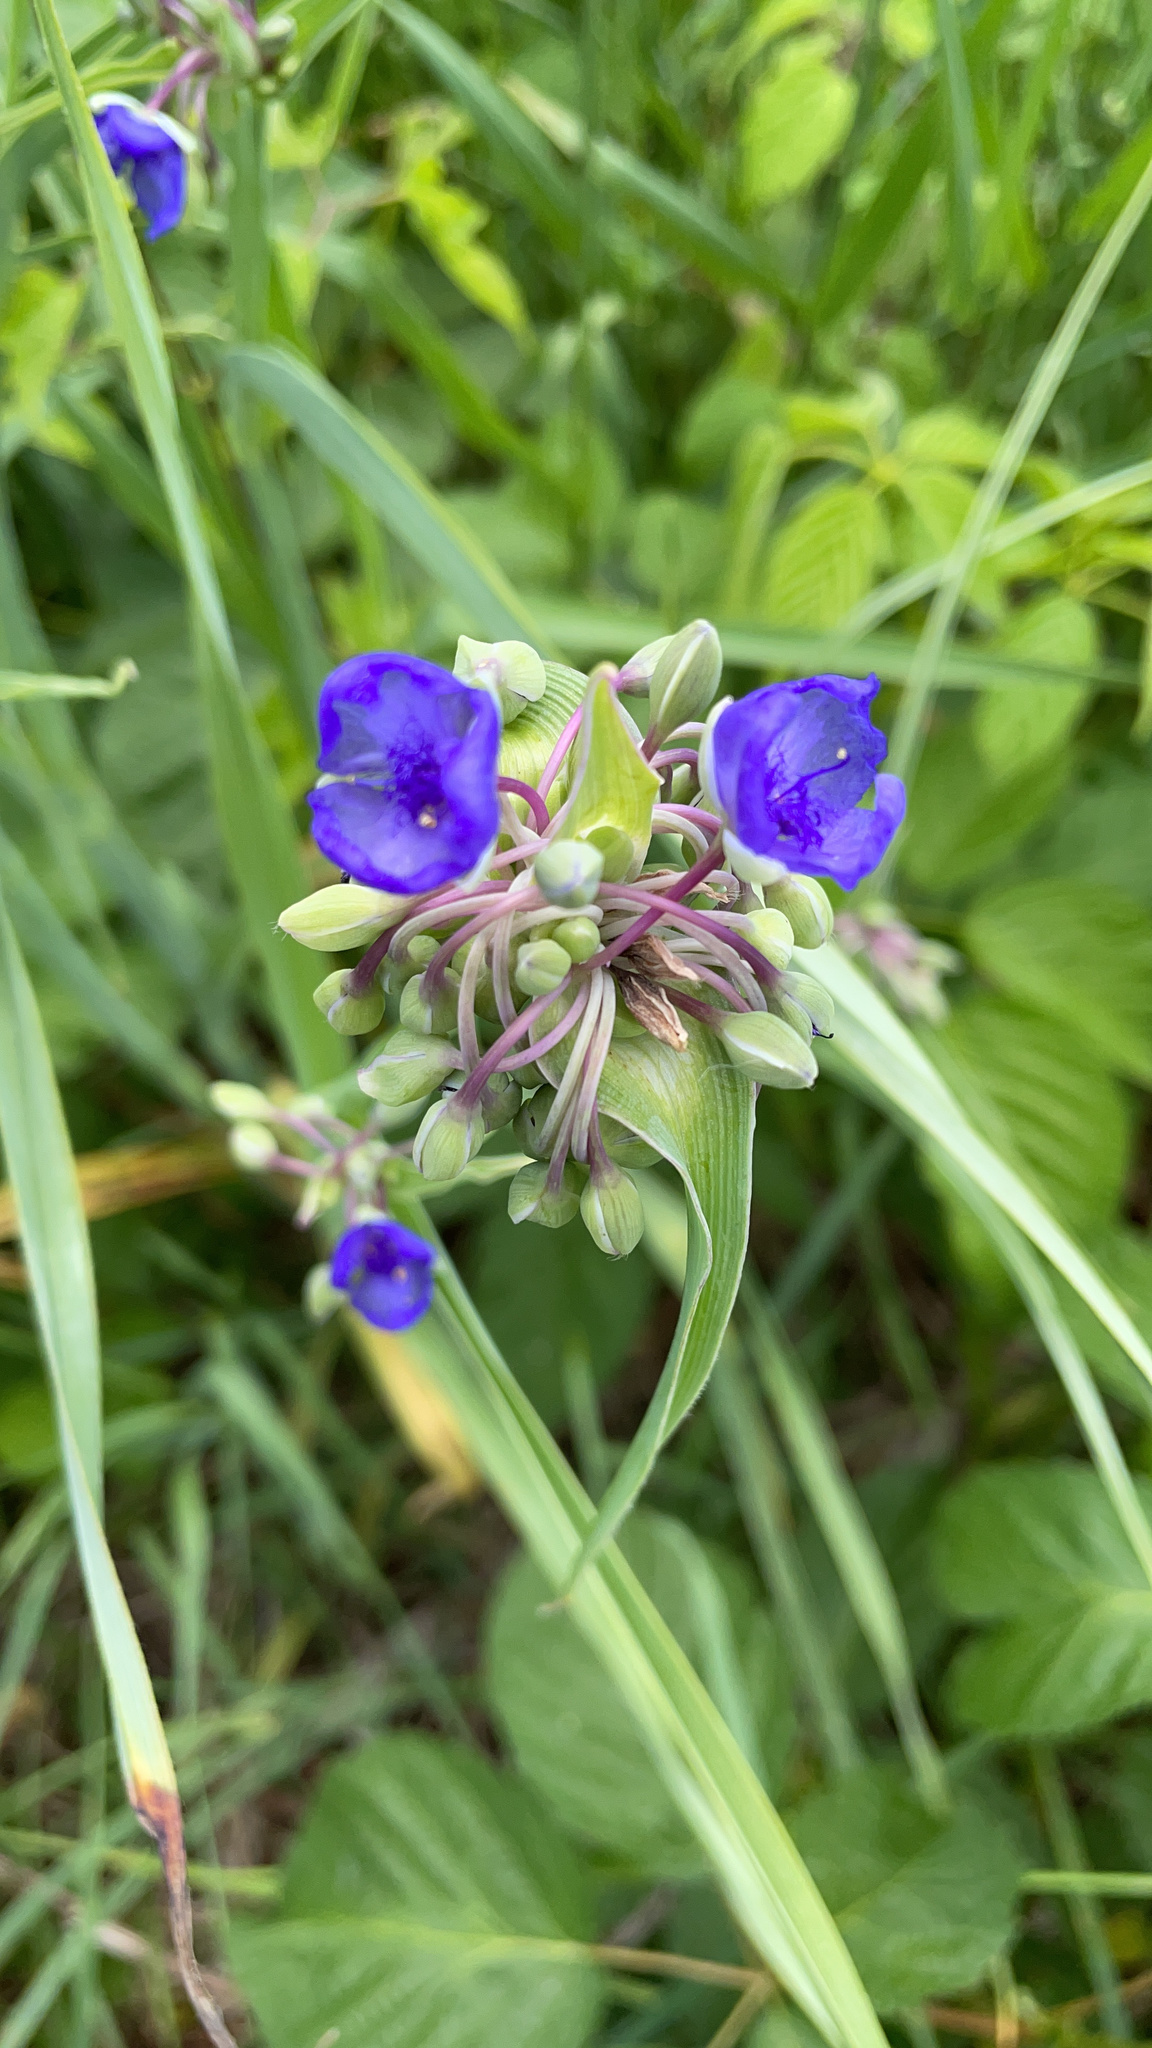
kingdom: Plantae
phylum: Tracheophyta
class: Liliopsida
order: Commelinales
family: Commelinaceae
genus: Tradescantia
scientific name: Tradescantia ohiensis
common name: Ohio spiderwort
